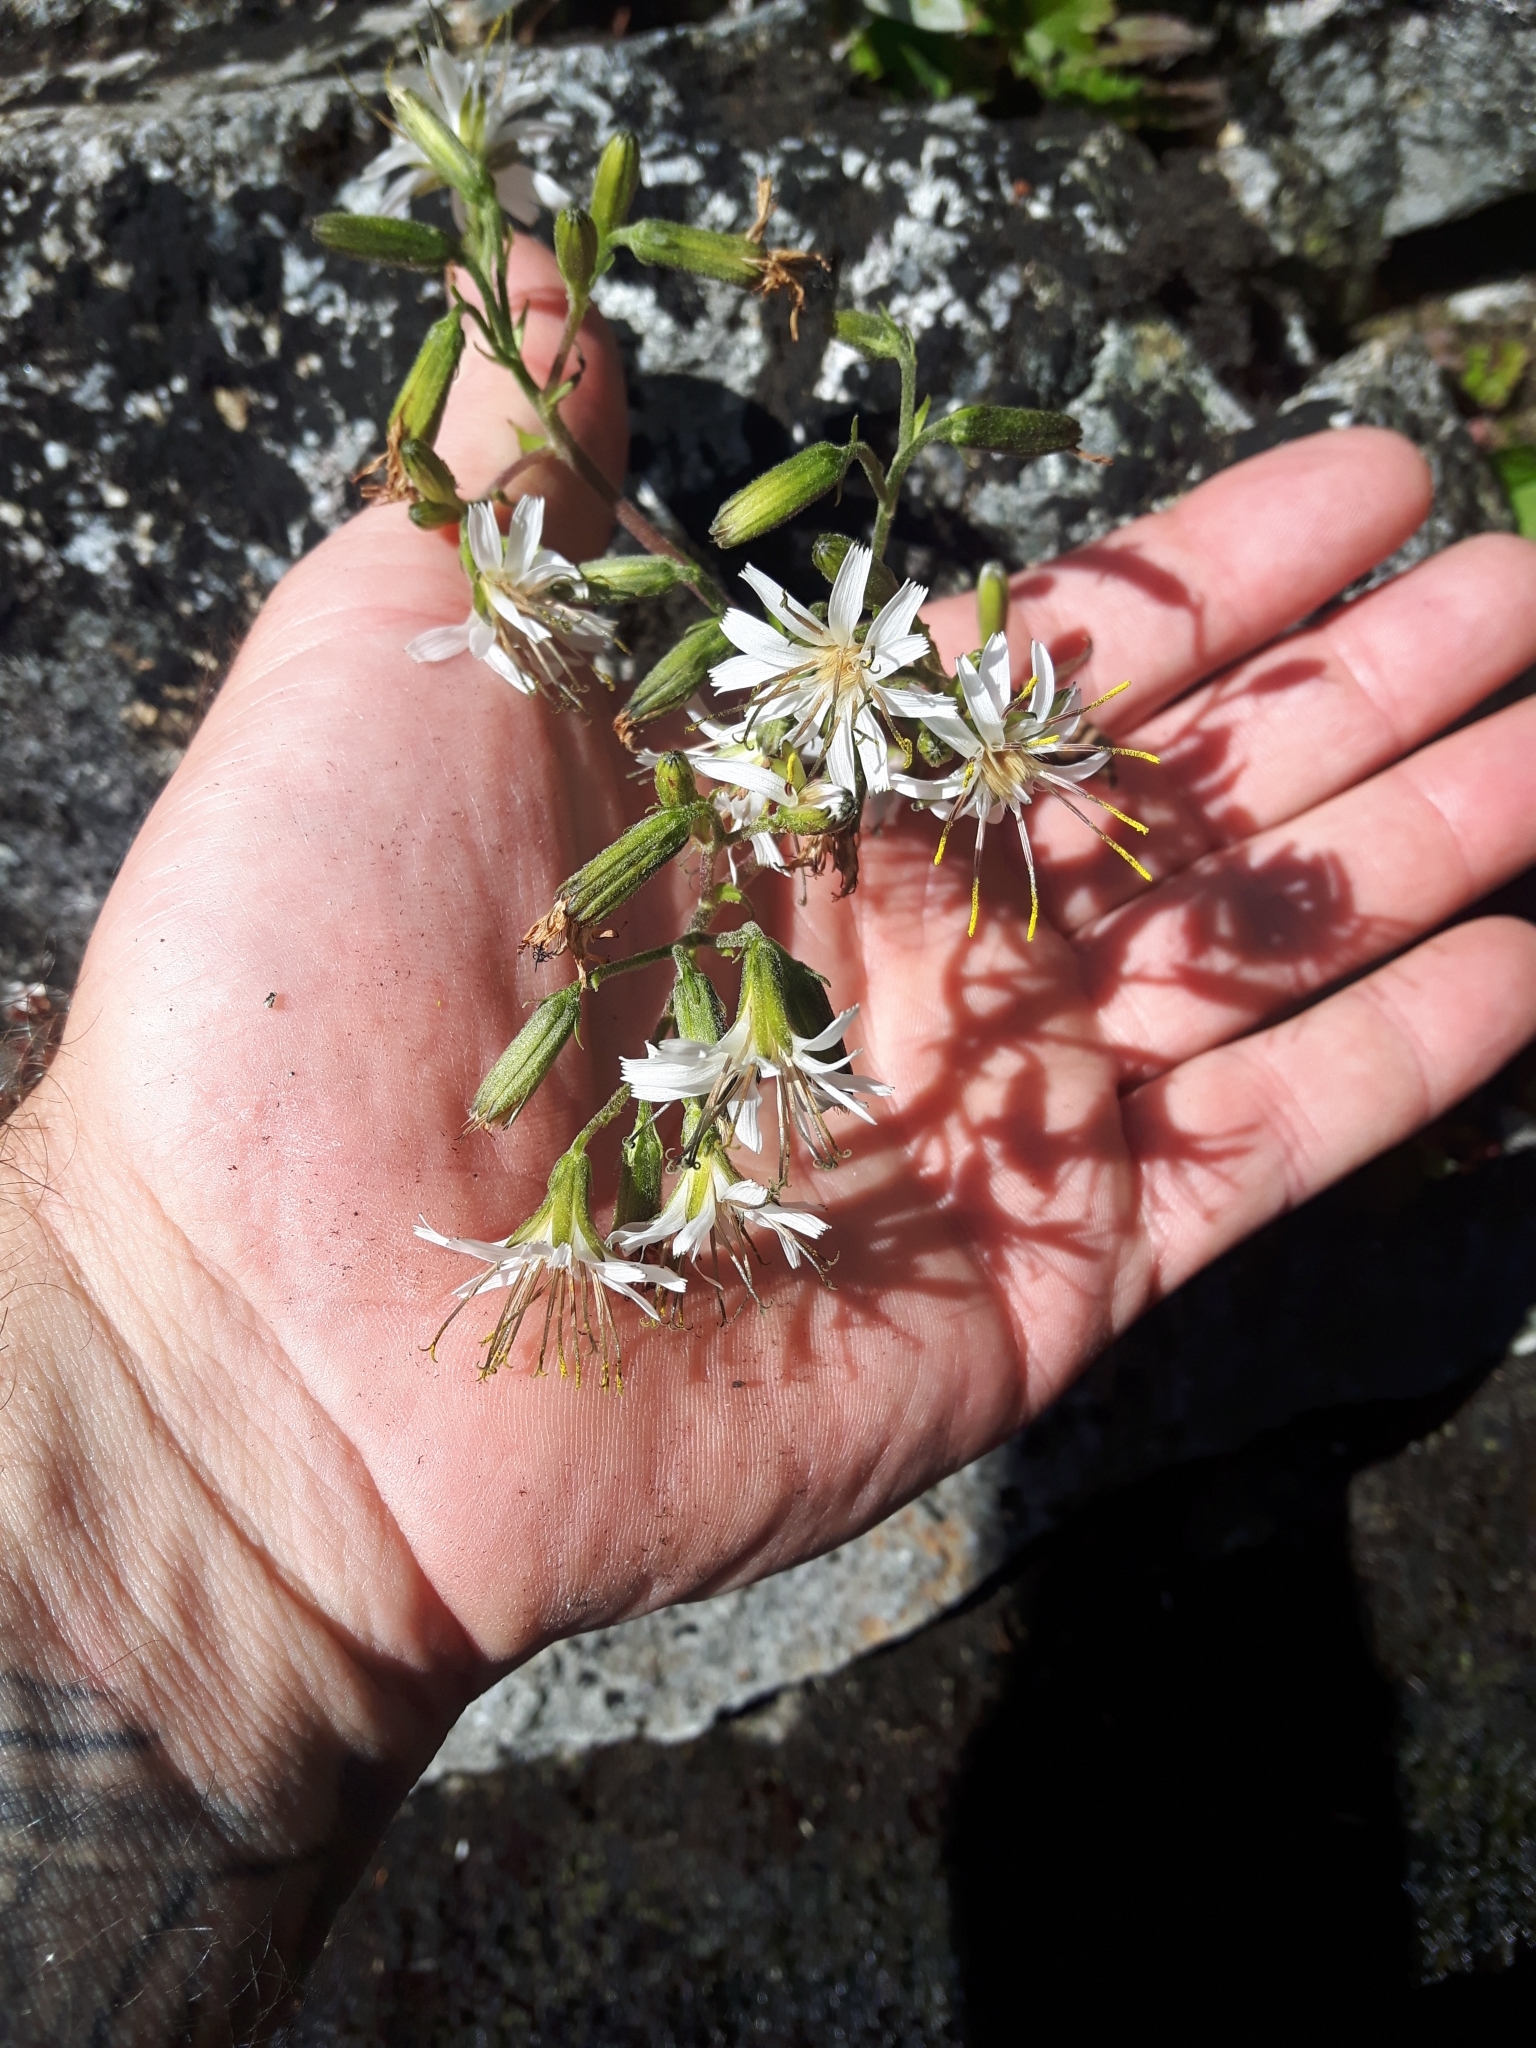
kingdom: Plantae
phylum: Tracheophyta
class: Magnoliopsida
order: Asterales
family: Asteraceae
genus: Nabalus
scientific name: Nabalus hastatus
